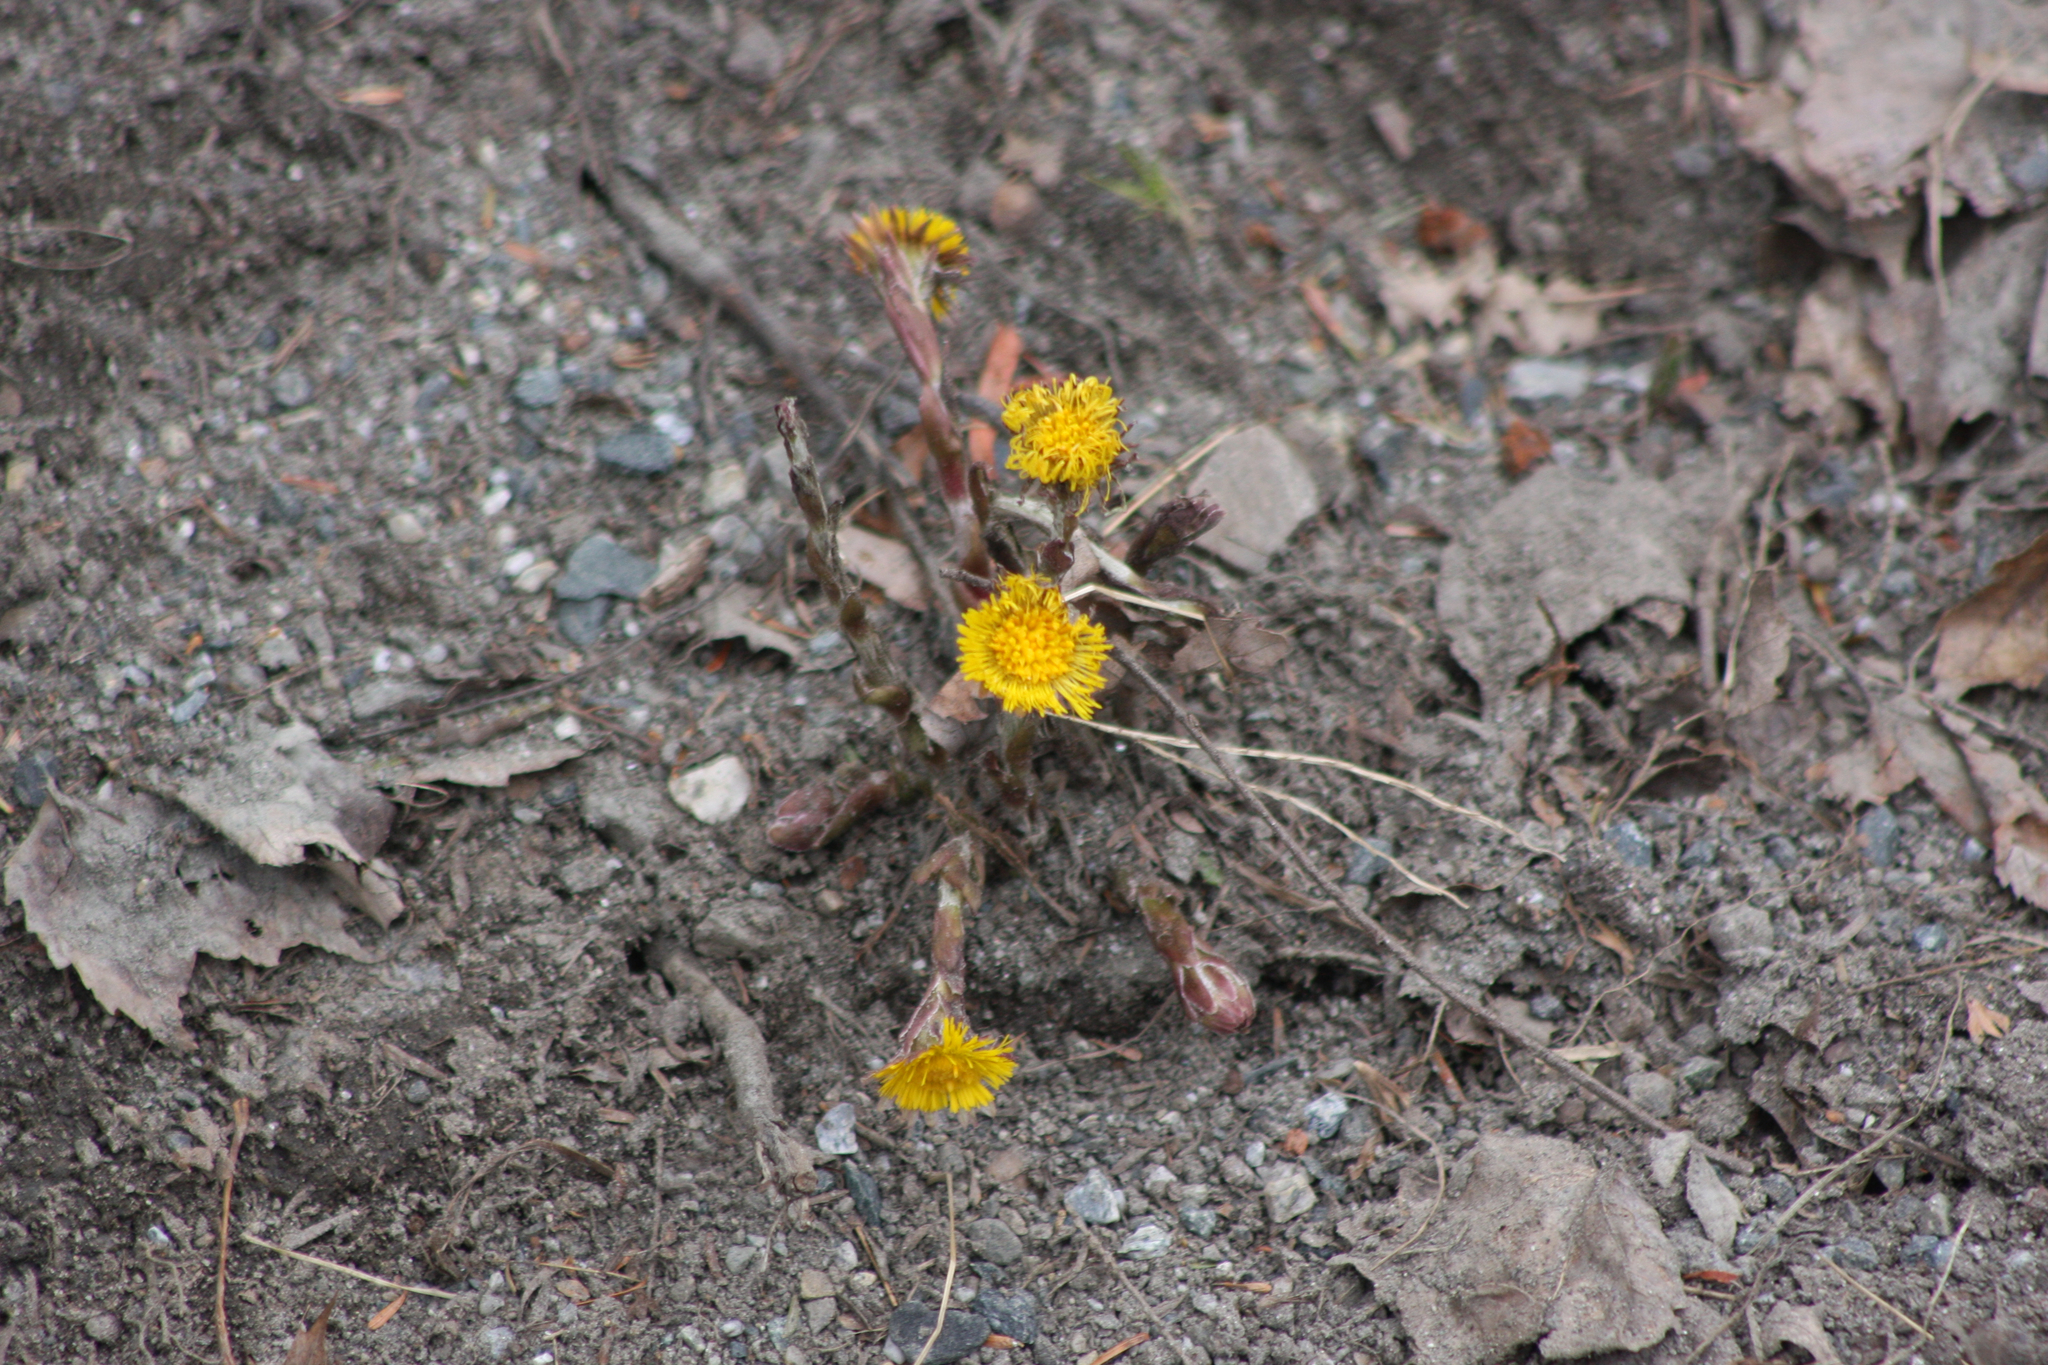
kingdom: Plantae
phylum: Tracheophyta
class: Magnoliopsida
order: Asterales
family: Asteraceae
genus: Tussilago
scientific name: Tussilago farfara
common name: Coltsfoot
